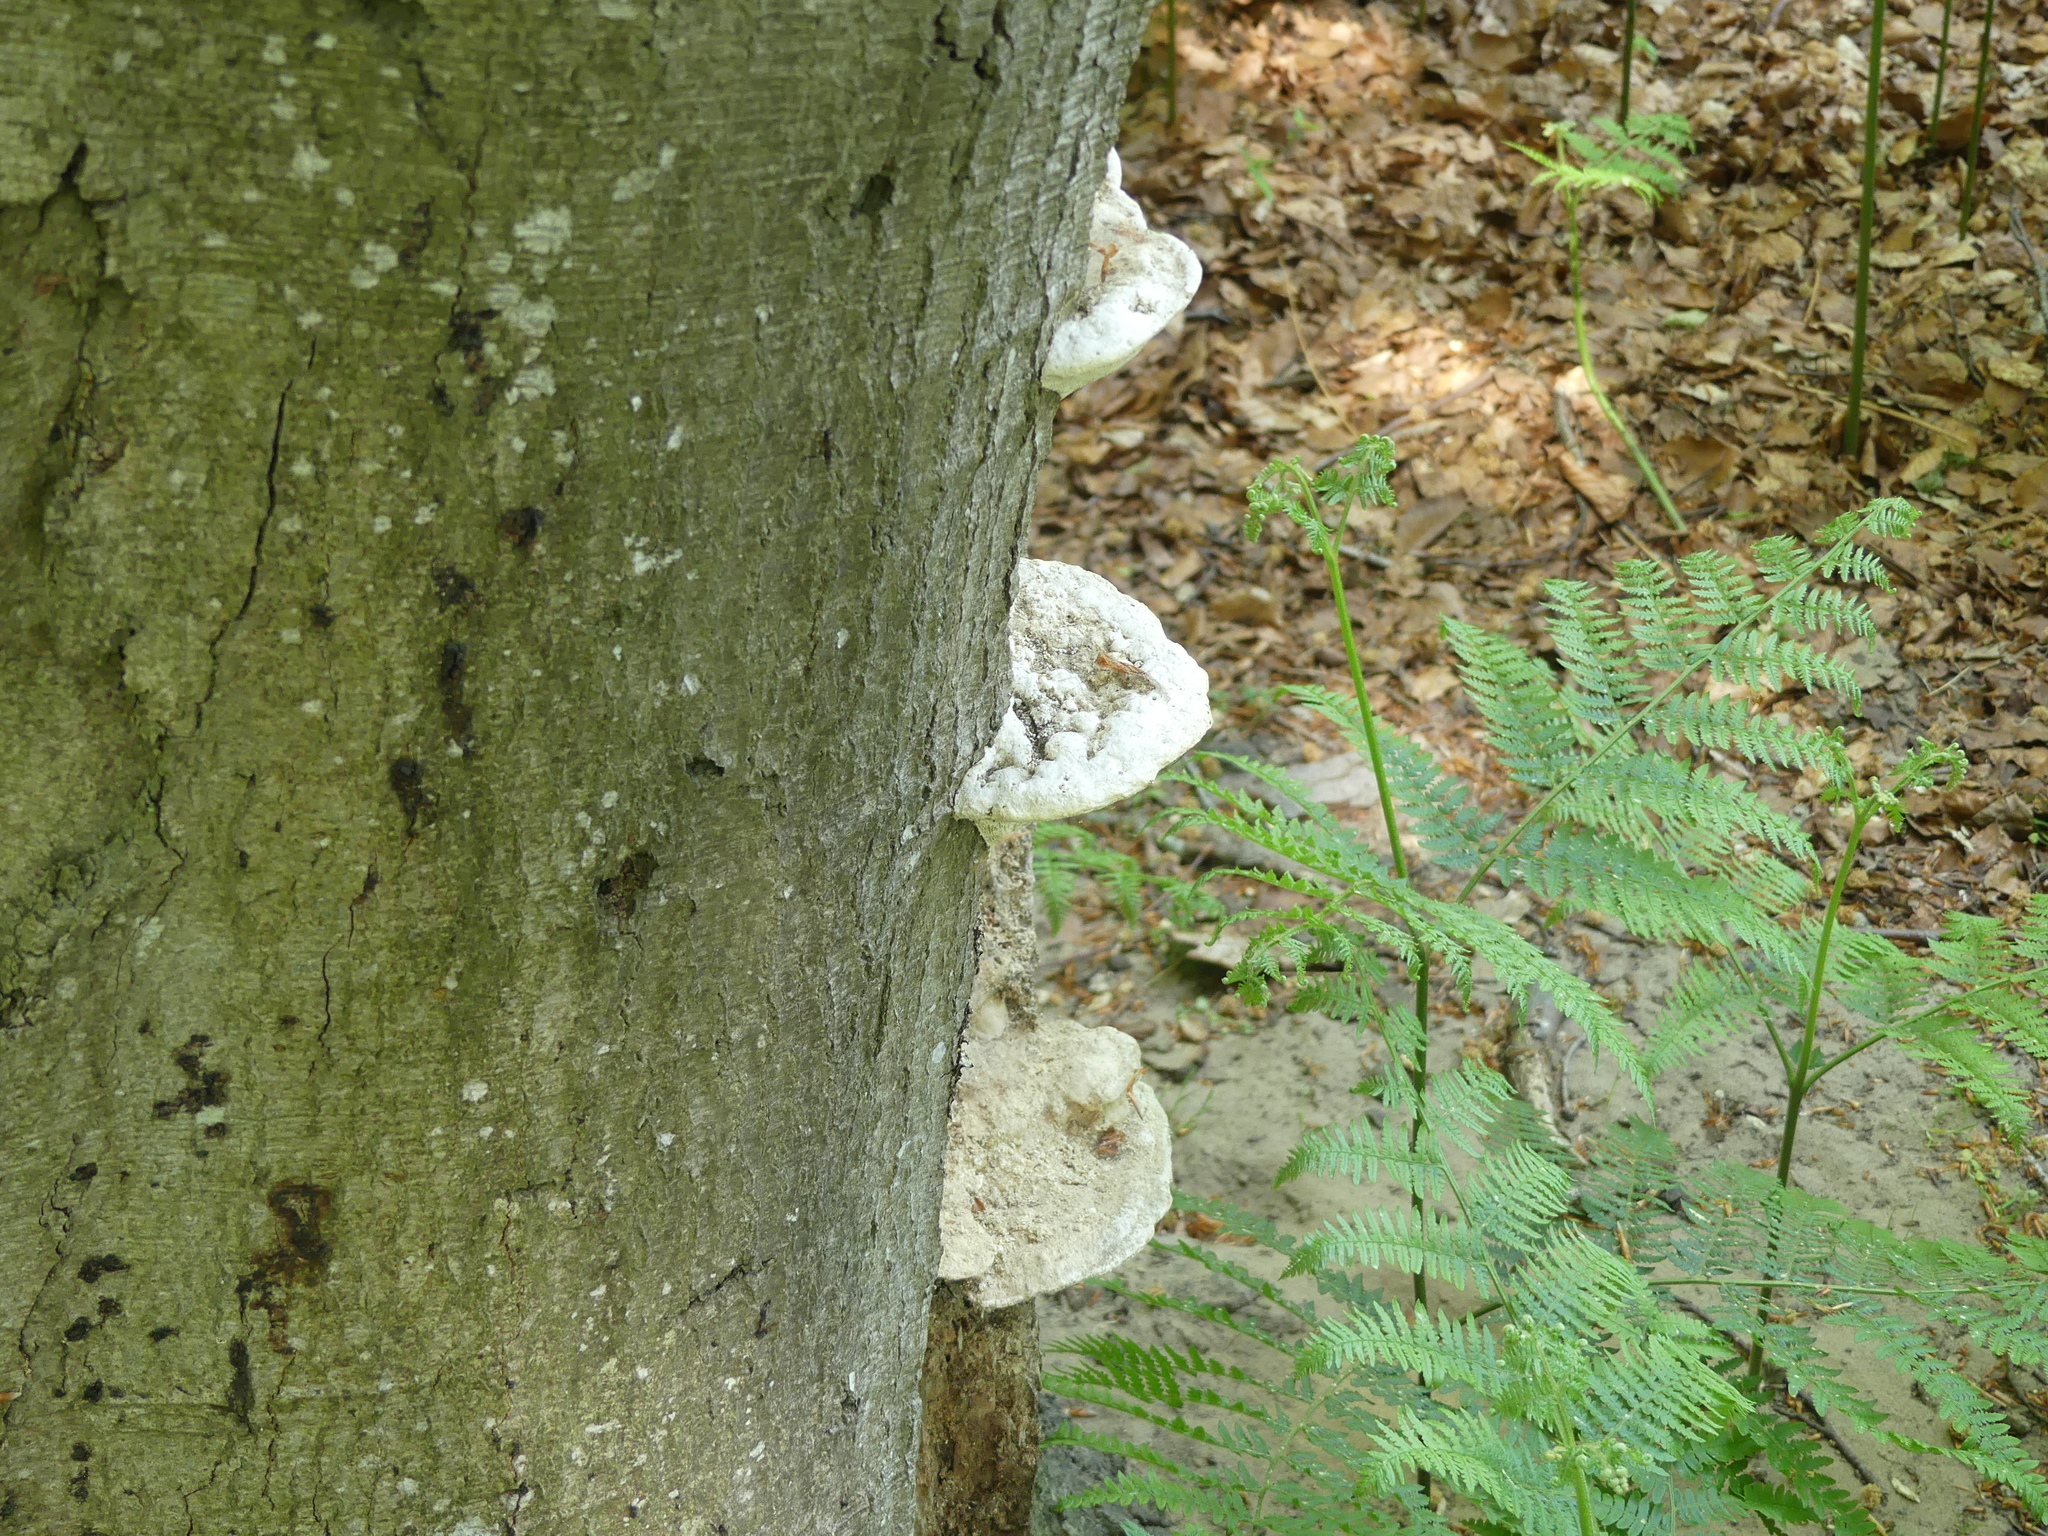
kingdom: Fungi
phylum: Basidiomycota
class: Agaricomycetes
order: Polyporales
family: Polyporaceae
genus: Trametes
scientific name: Trametes gibbosa
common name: Lumpy bracket
